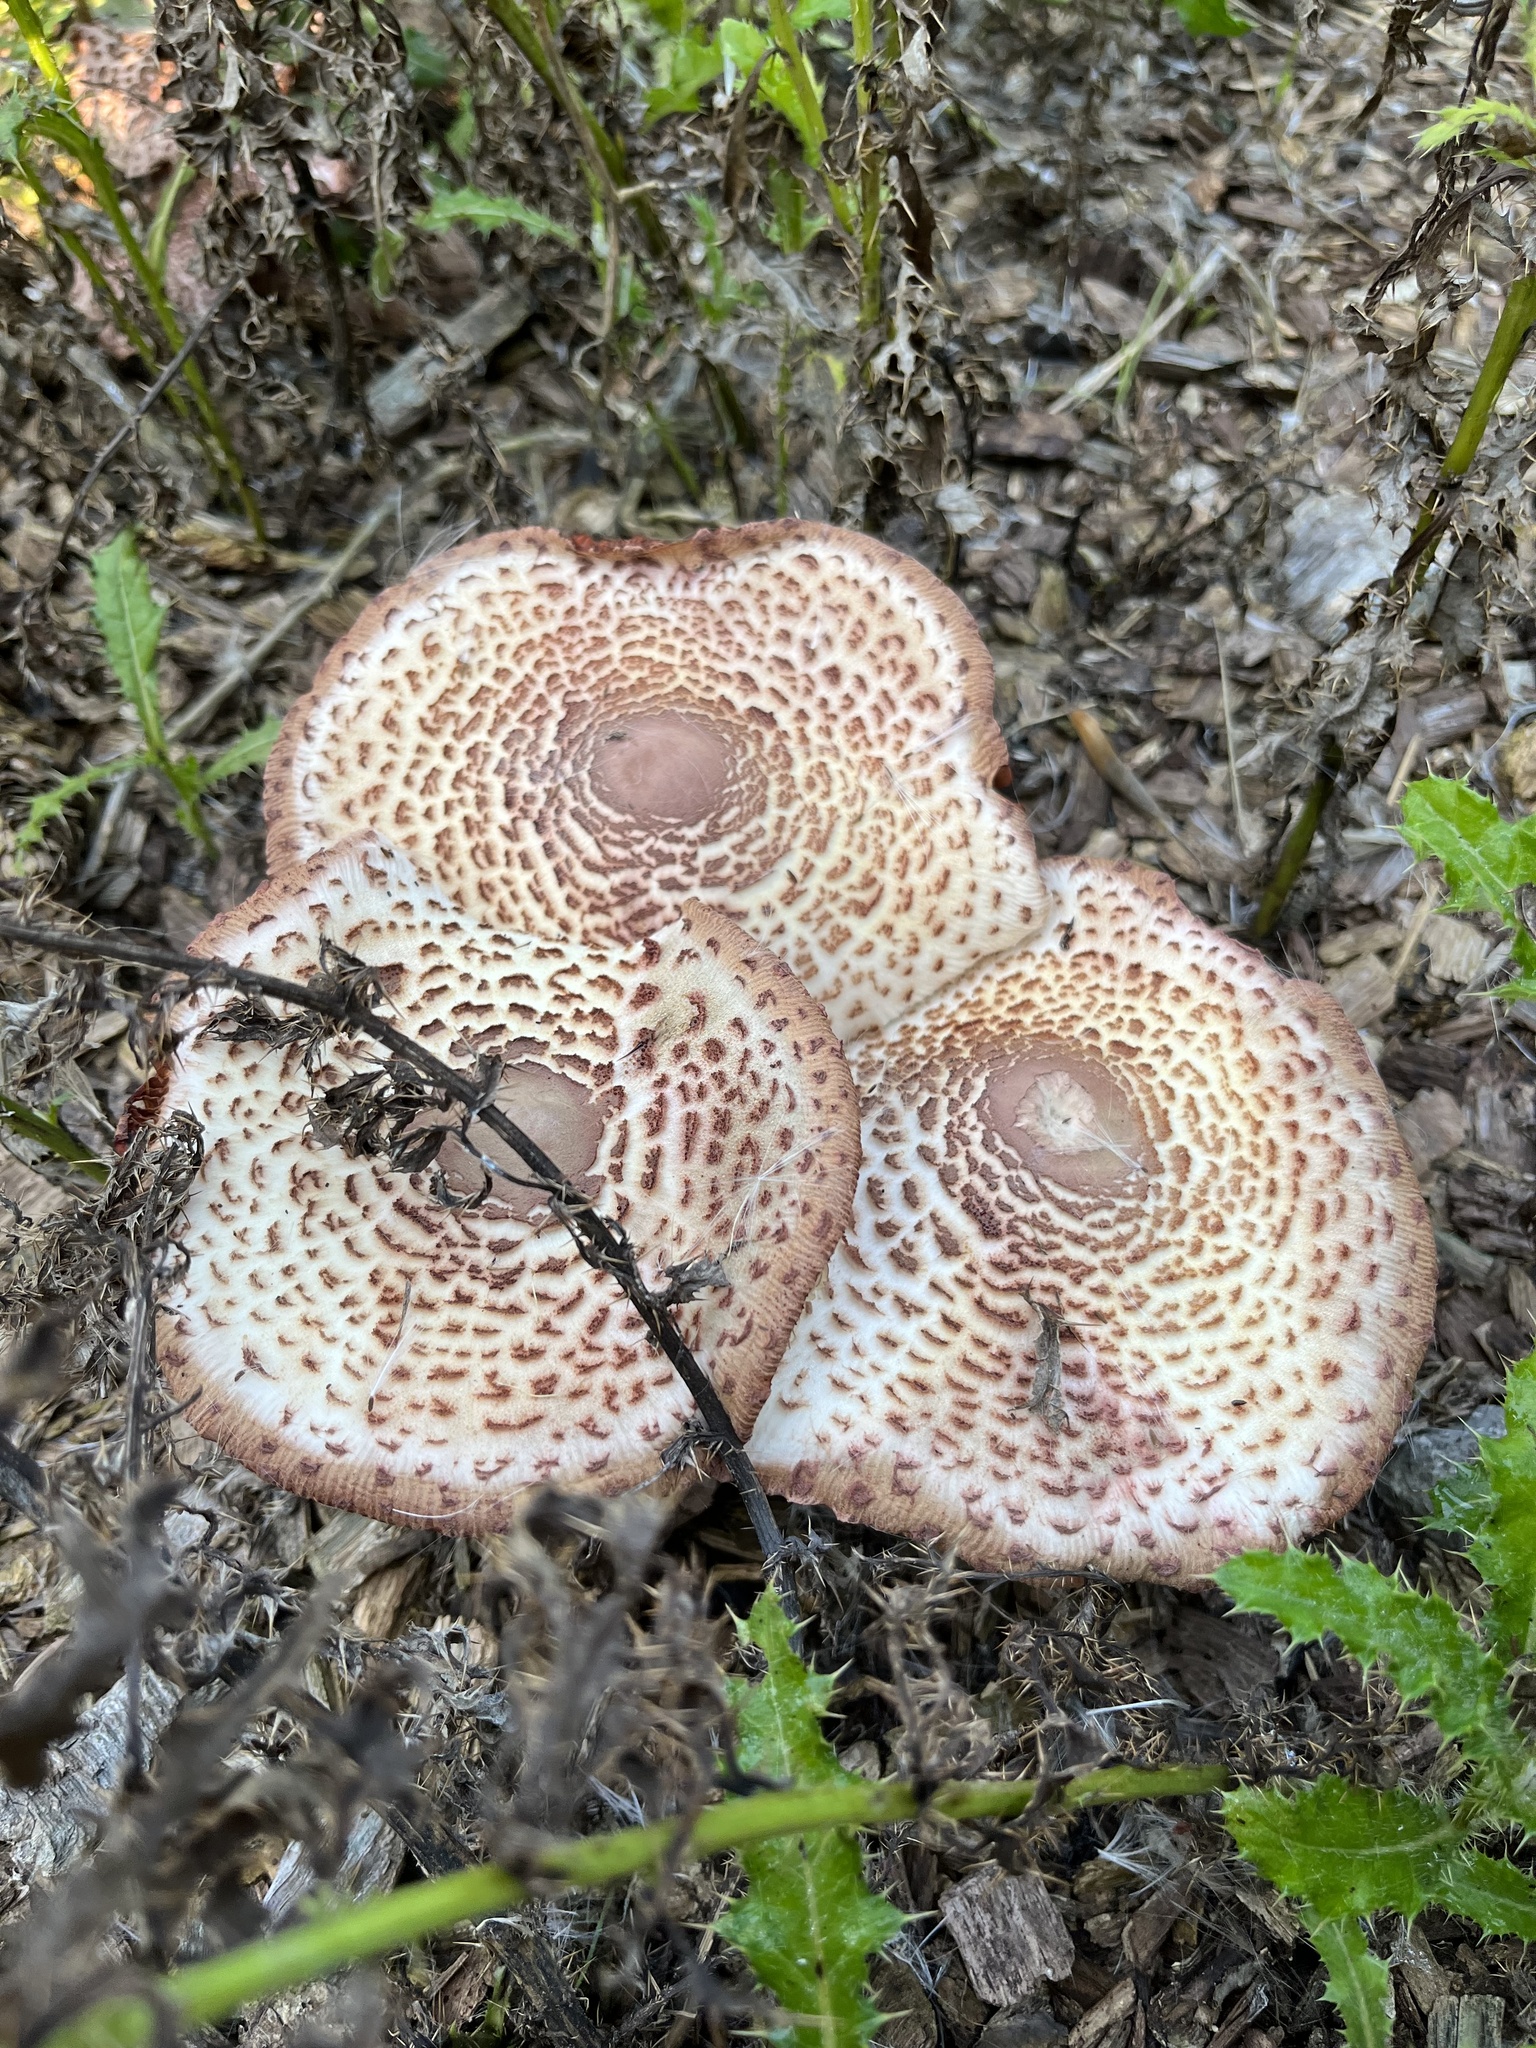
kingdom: Fungi
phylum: Basidiomycota
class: Agaricomycetes
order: Agaricales
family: Agaricaceae
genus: Leucoagaricus
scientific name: Leucoagaricus americanus
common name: Reddening lepiota
